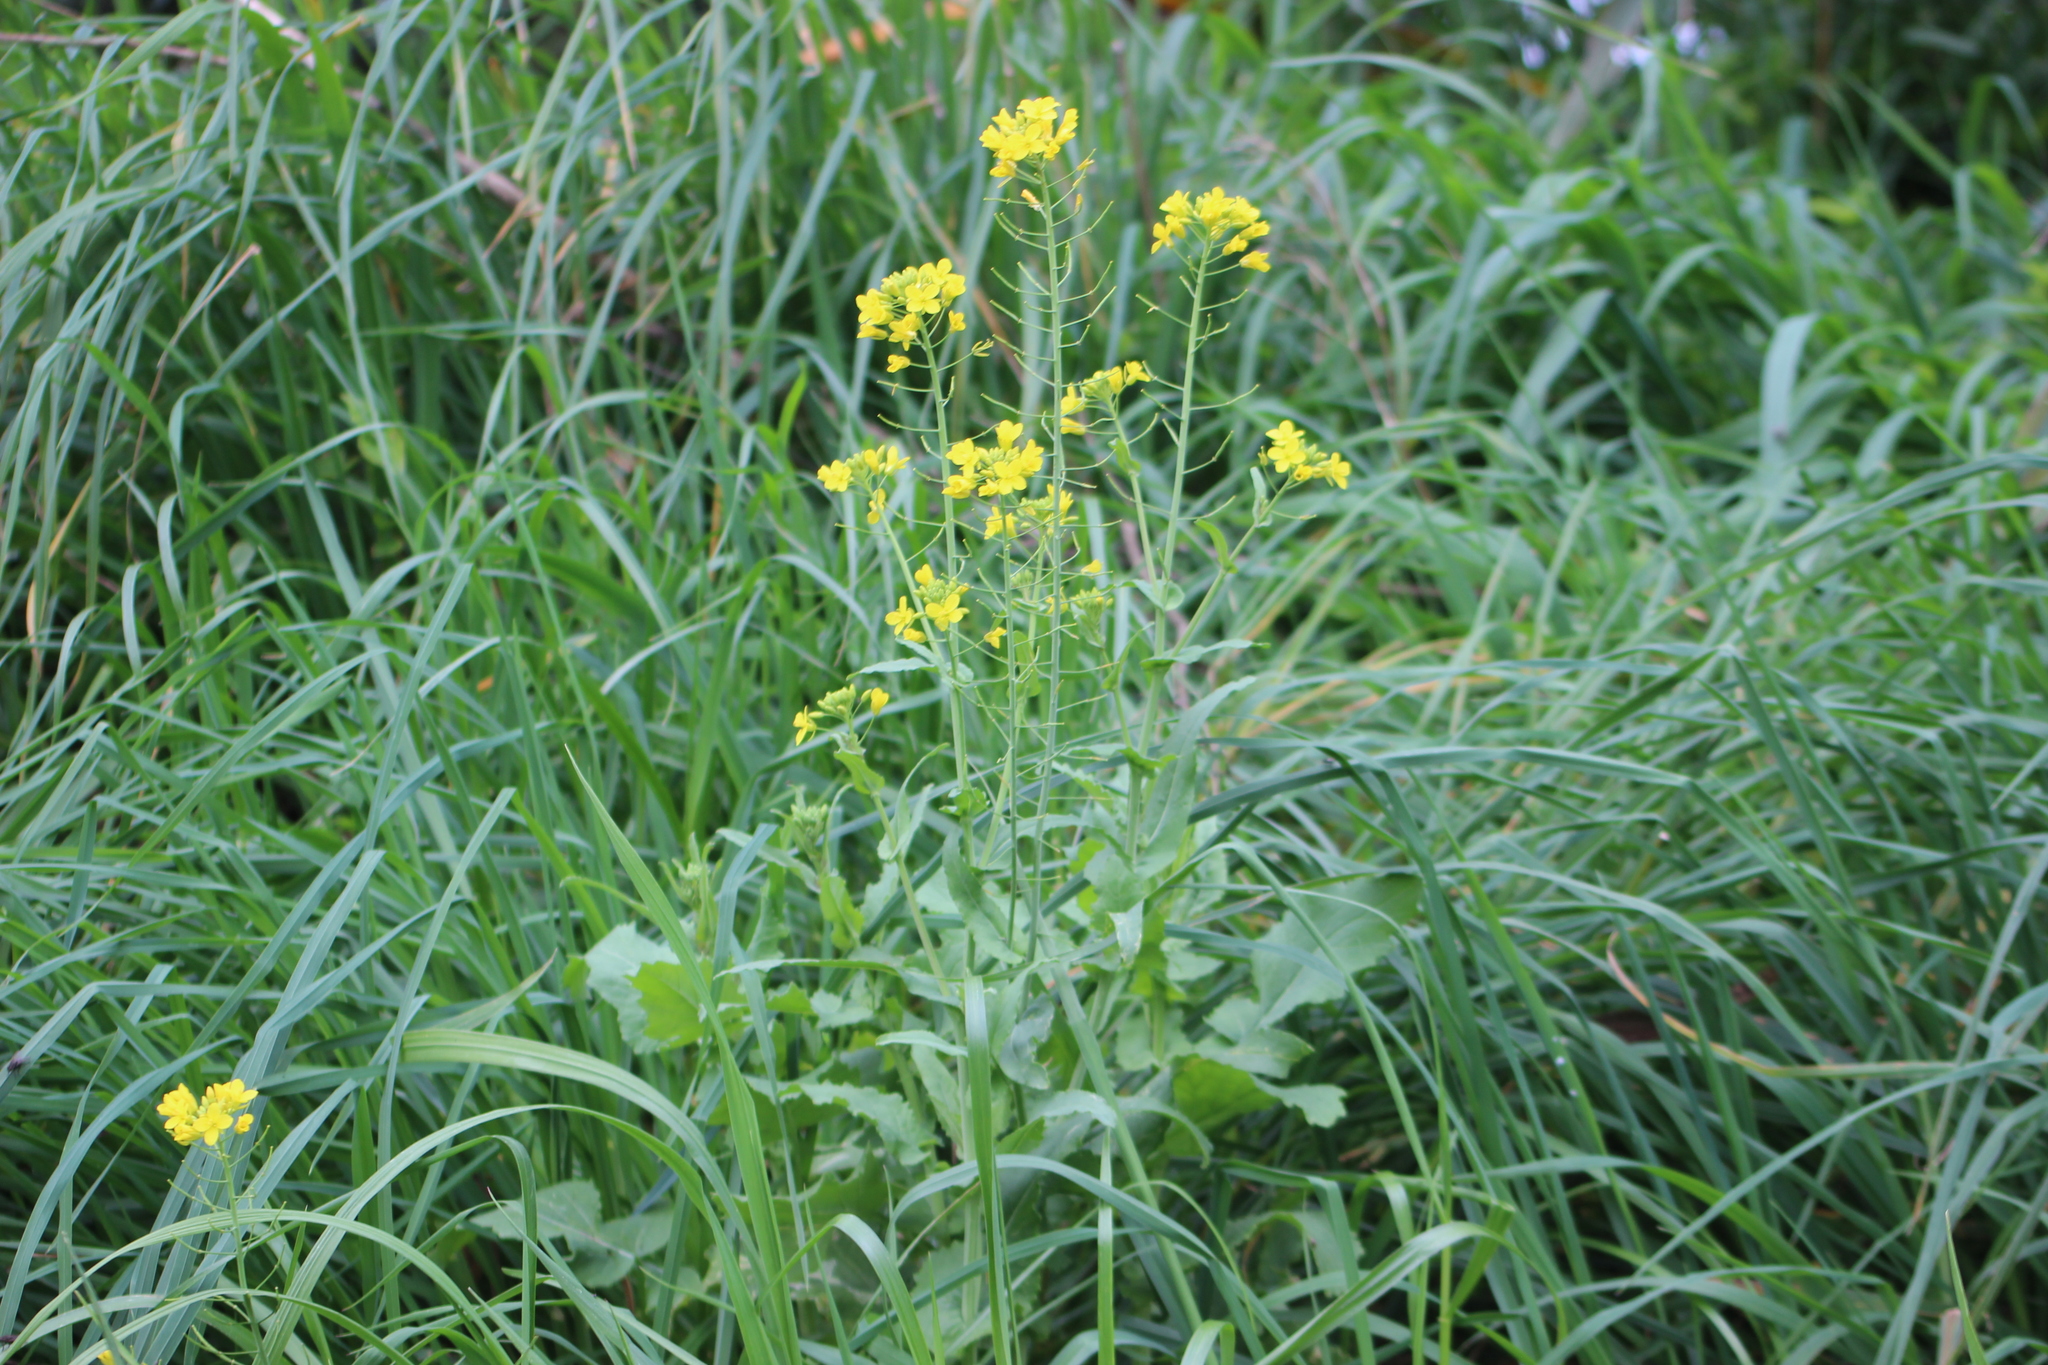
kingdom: Plantae
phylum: Tracheophyta
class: Magnoliopsida
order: Brassicales
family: Brassicaceae
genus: Brassica
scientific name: Brassica rapa
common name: Field mustard
